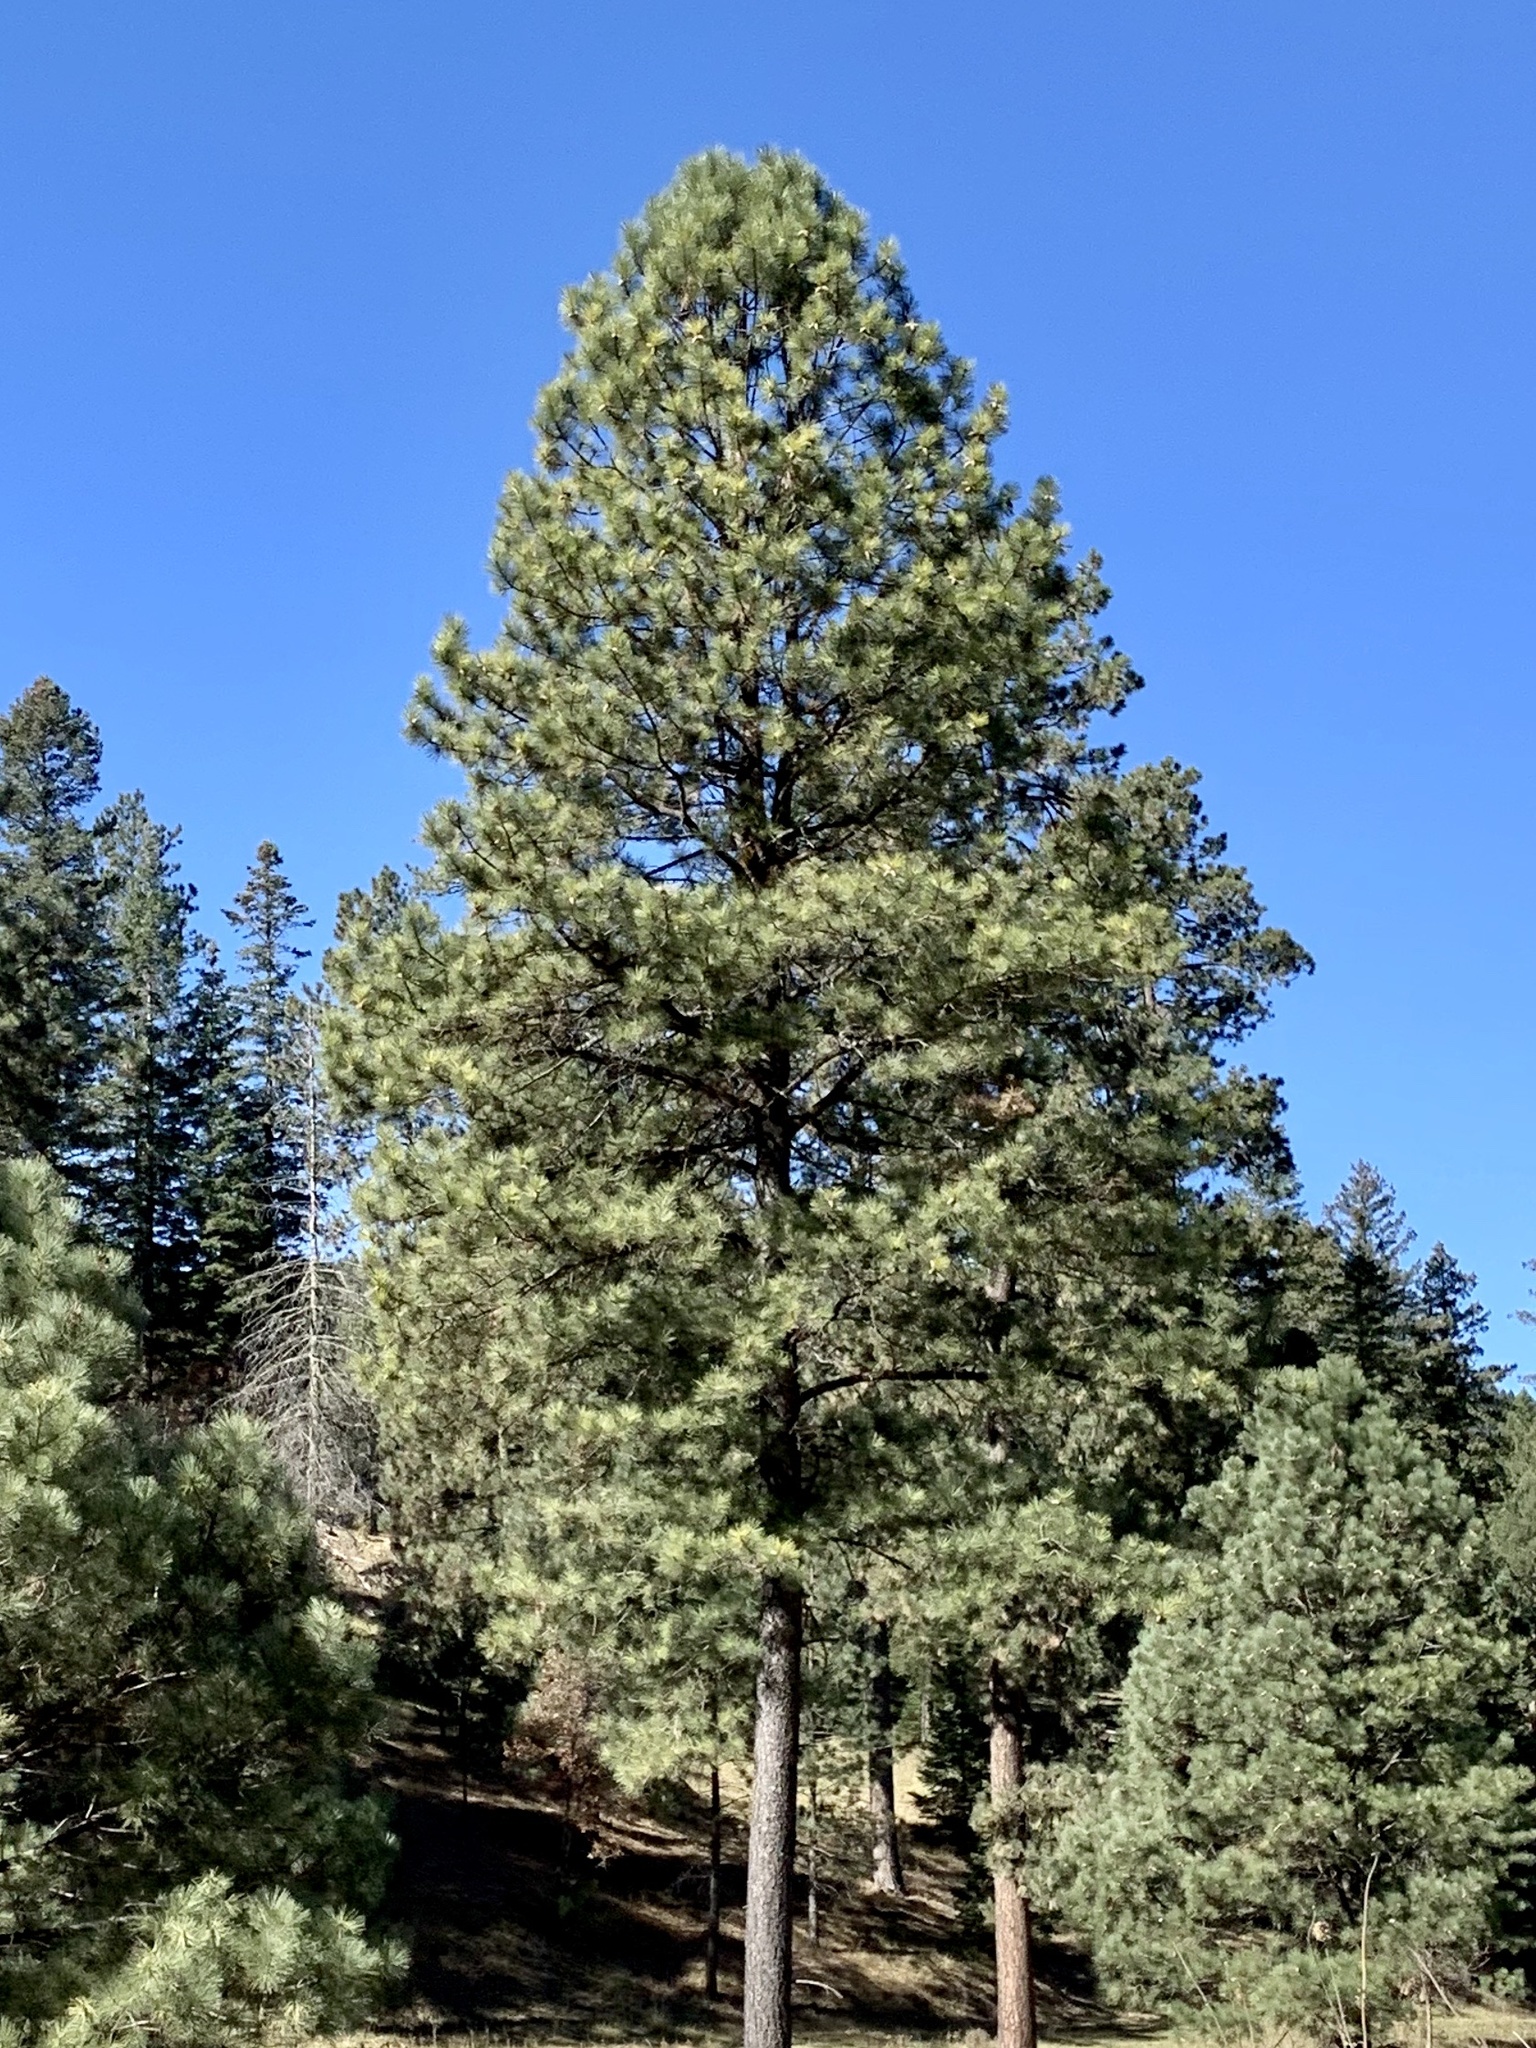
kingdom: Plantae
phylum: Tracheophyta
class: Pinopsida
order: Pinales
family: Pinaceae
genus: Pinus
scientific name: Pinus ponderosa
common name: Western yellow-pine
